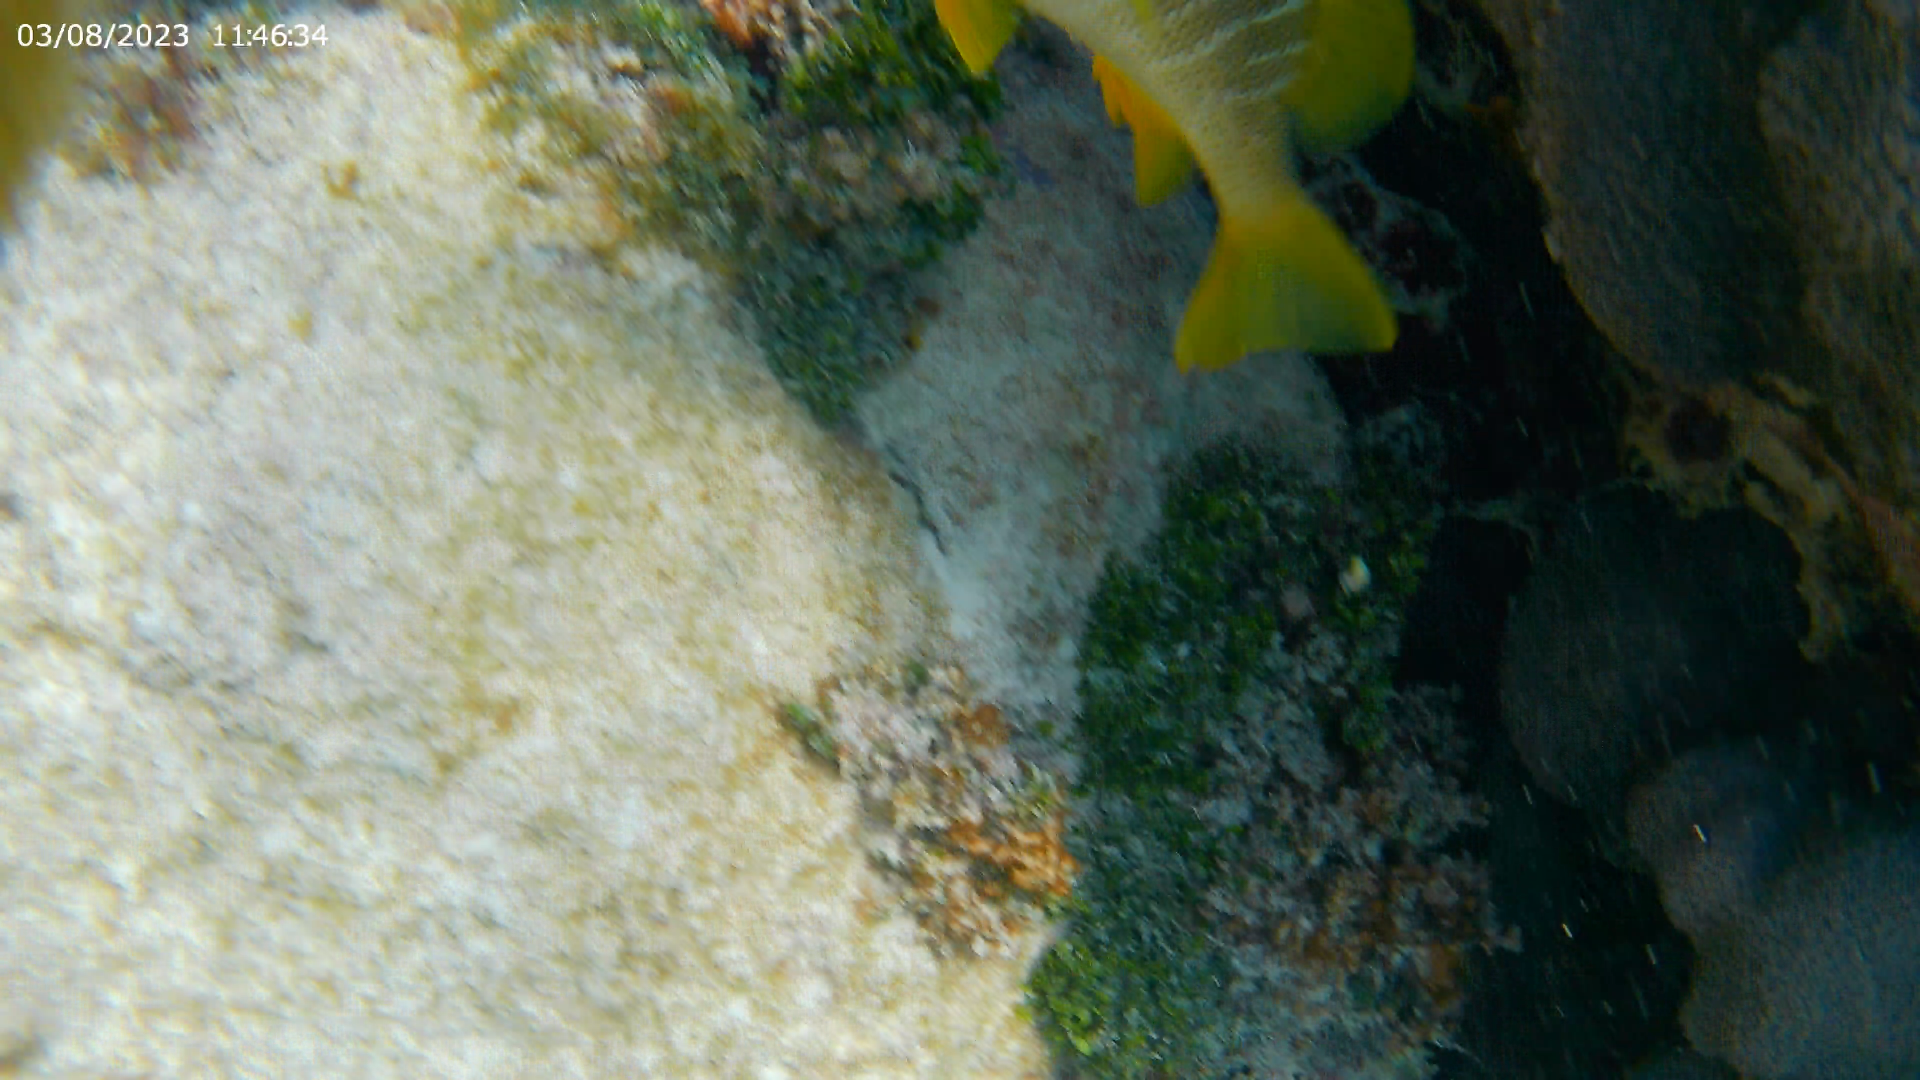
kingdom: Animalia
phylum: Chordata
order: Perciformes
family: Lutjanidae
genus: Lutjanus
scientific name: Lutjanus apodus
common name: Schoolmaster
